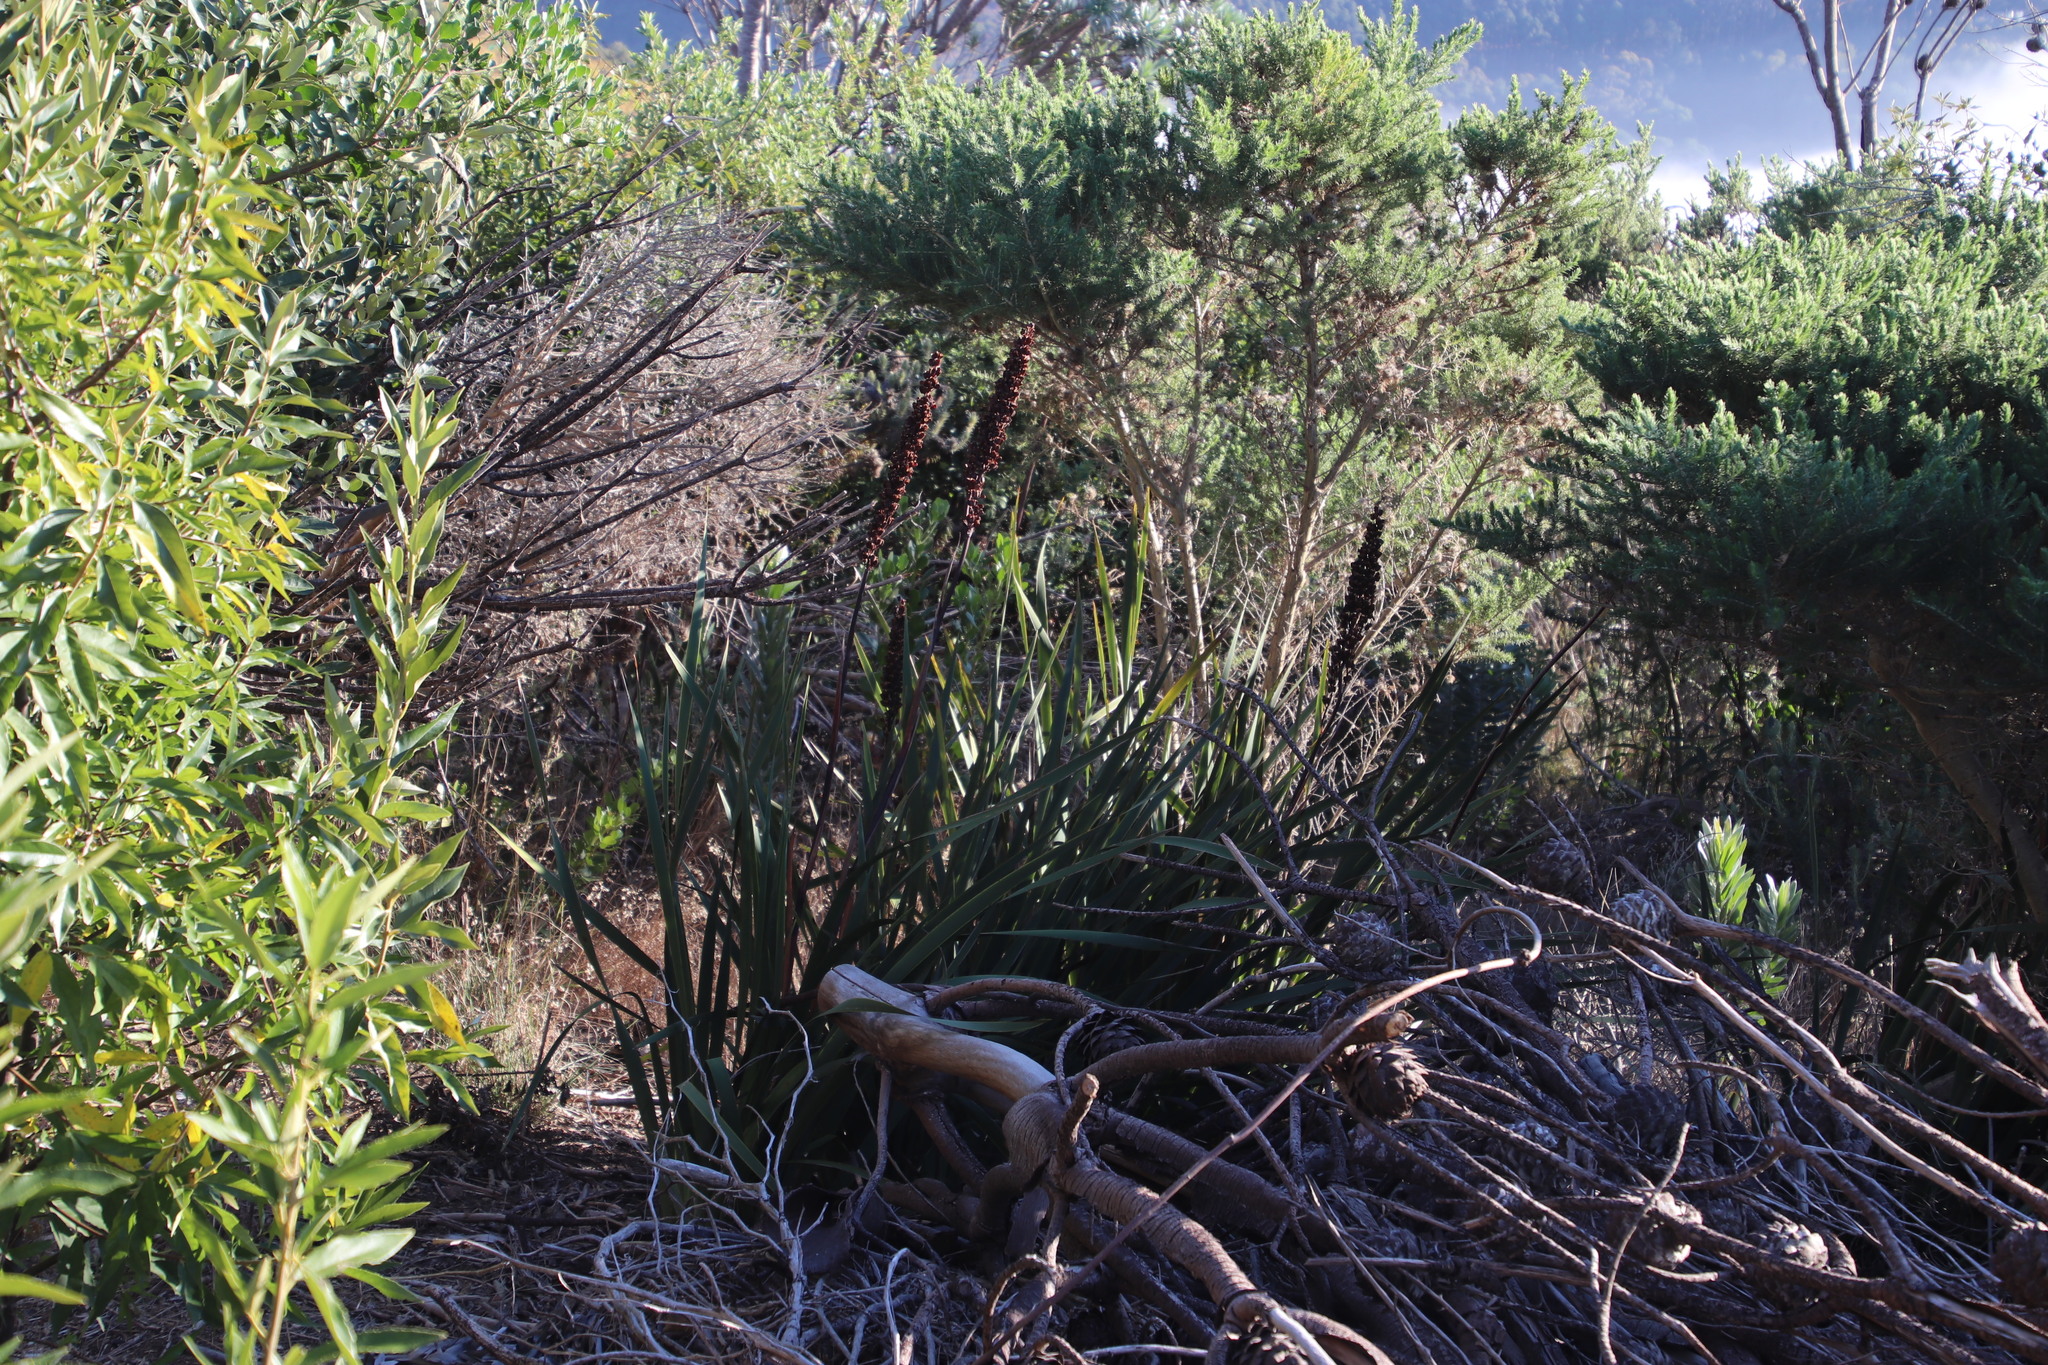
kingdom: Plantae
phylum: Tracheophyta
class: Liliopsida
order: Asparagales
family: Iridaceae
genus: Aristea
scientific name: Aristea bakeri
